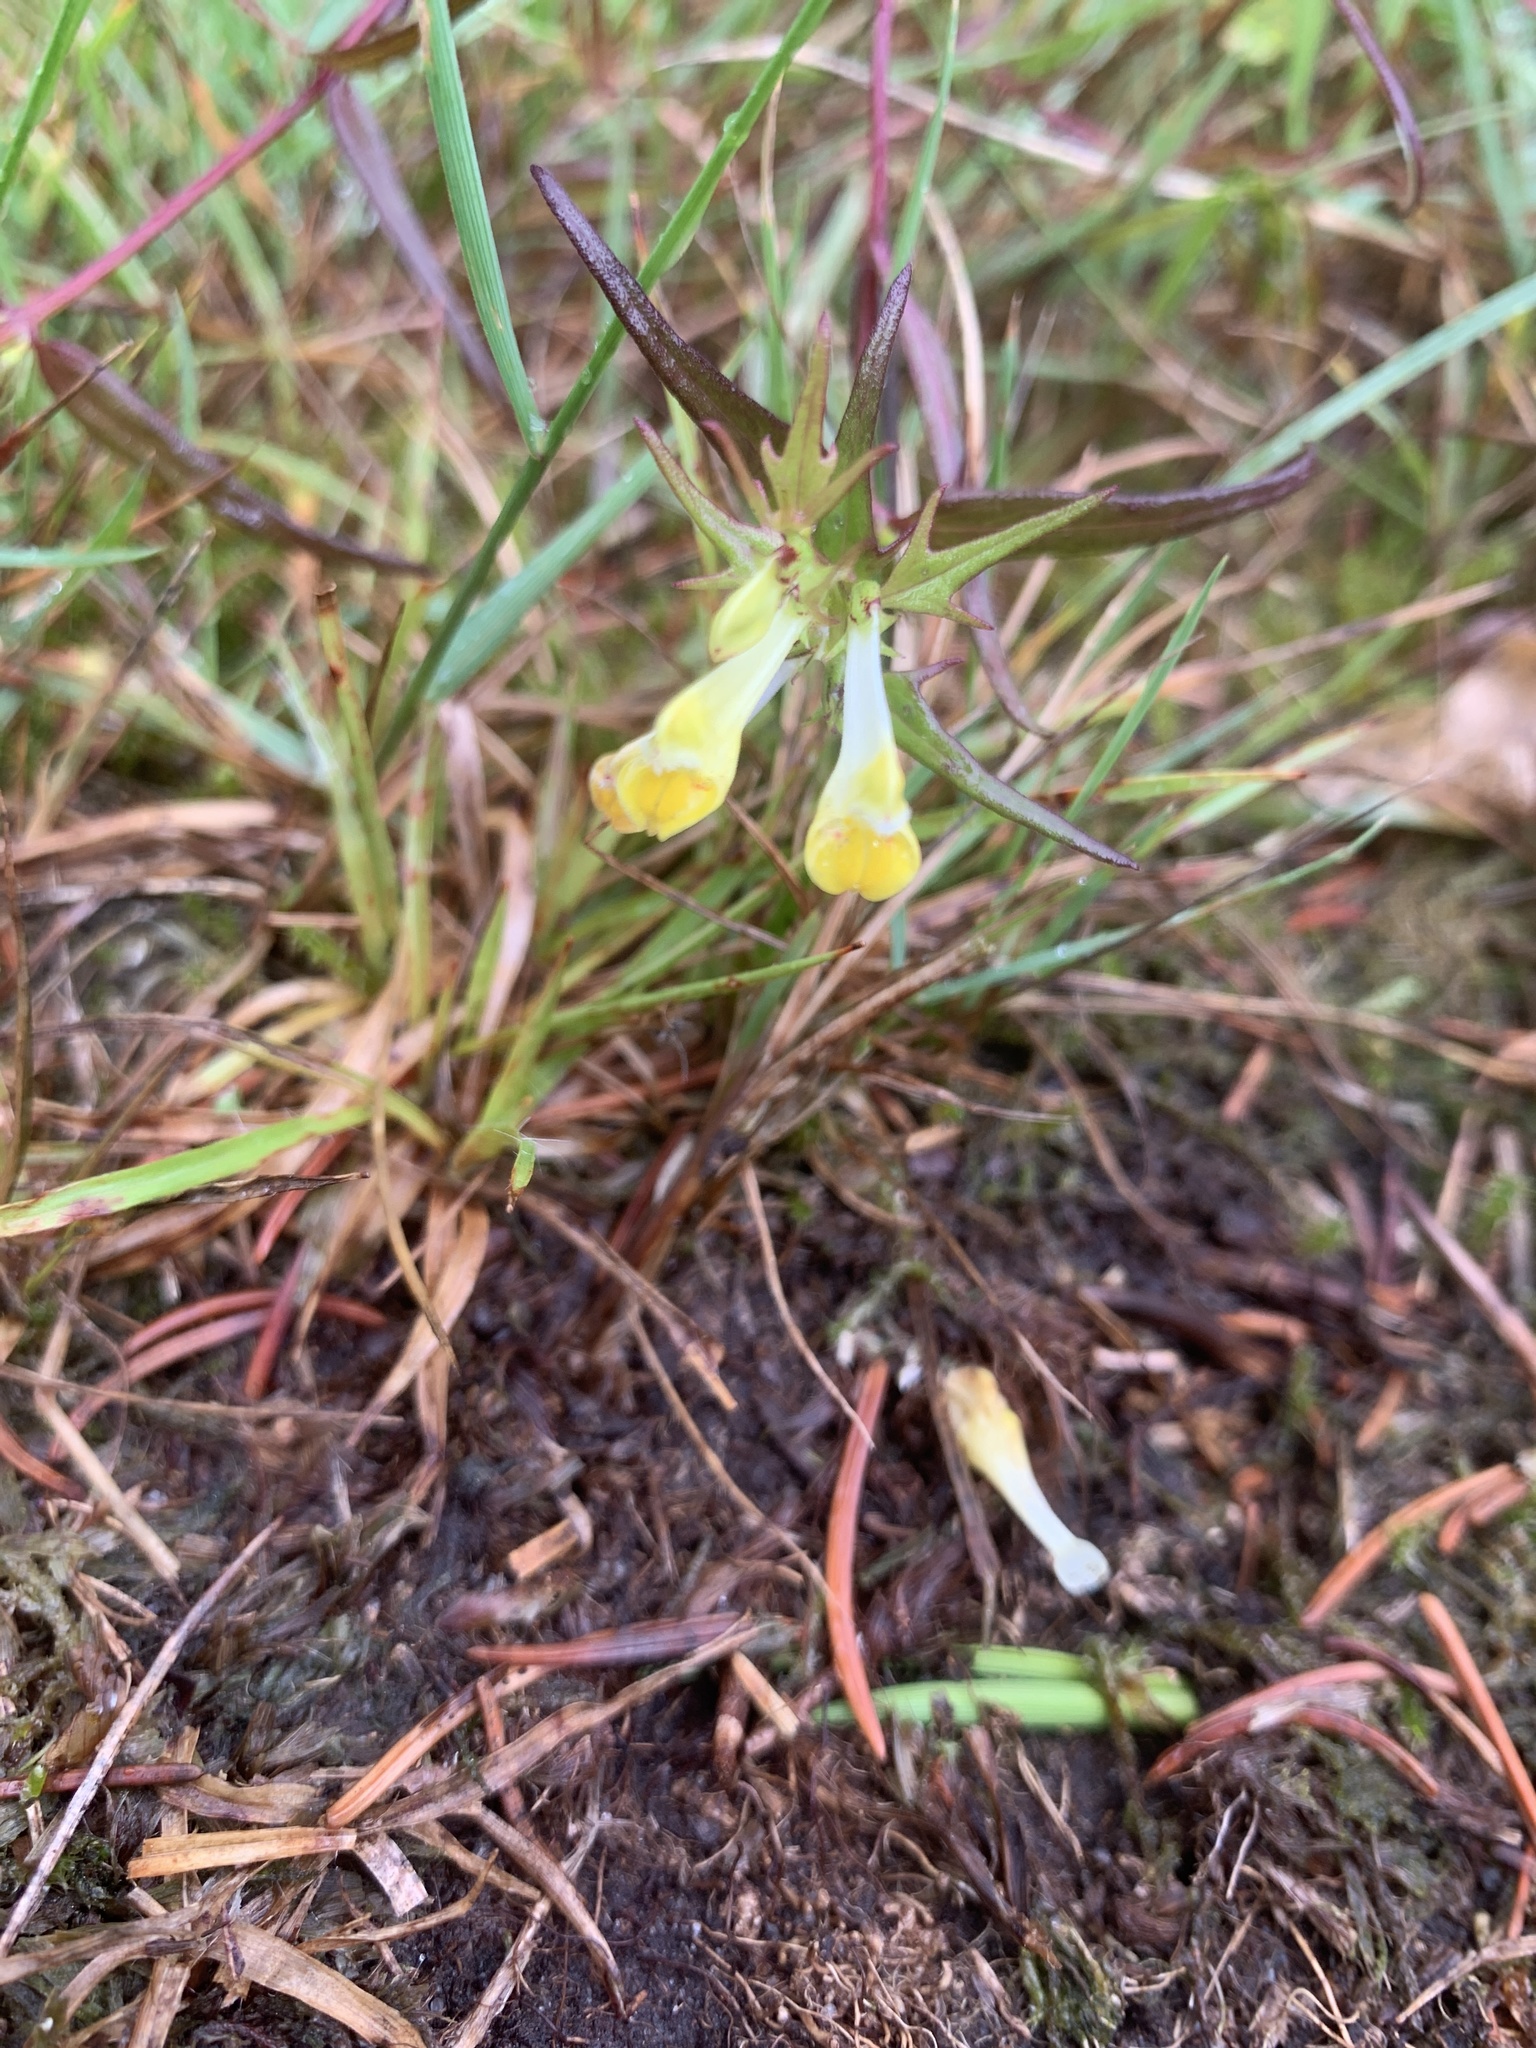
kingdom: Plantae
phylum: Tracheophyta
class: Magnoliopsida
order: Lamiales
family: Orobanchaceae
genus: Melampyrum
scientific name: Melampyrum pratense
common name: Common cow-wheat
